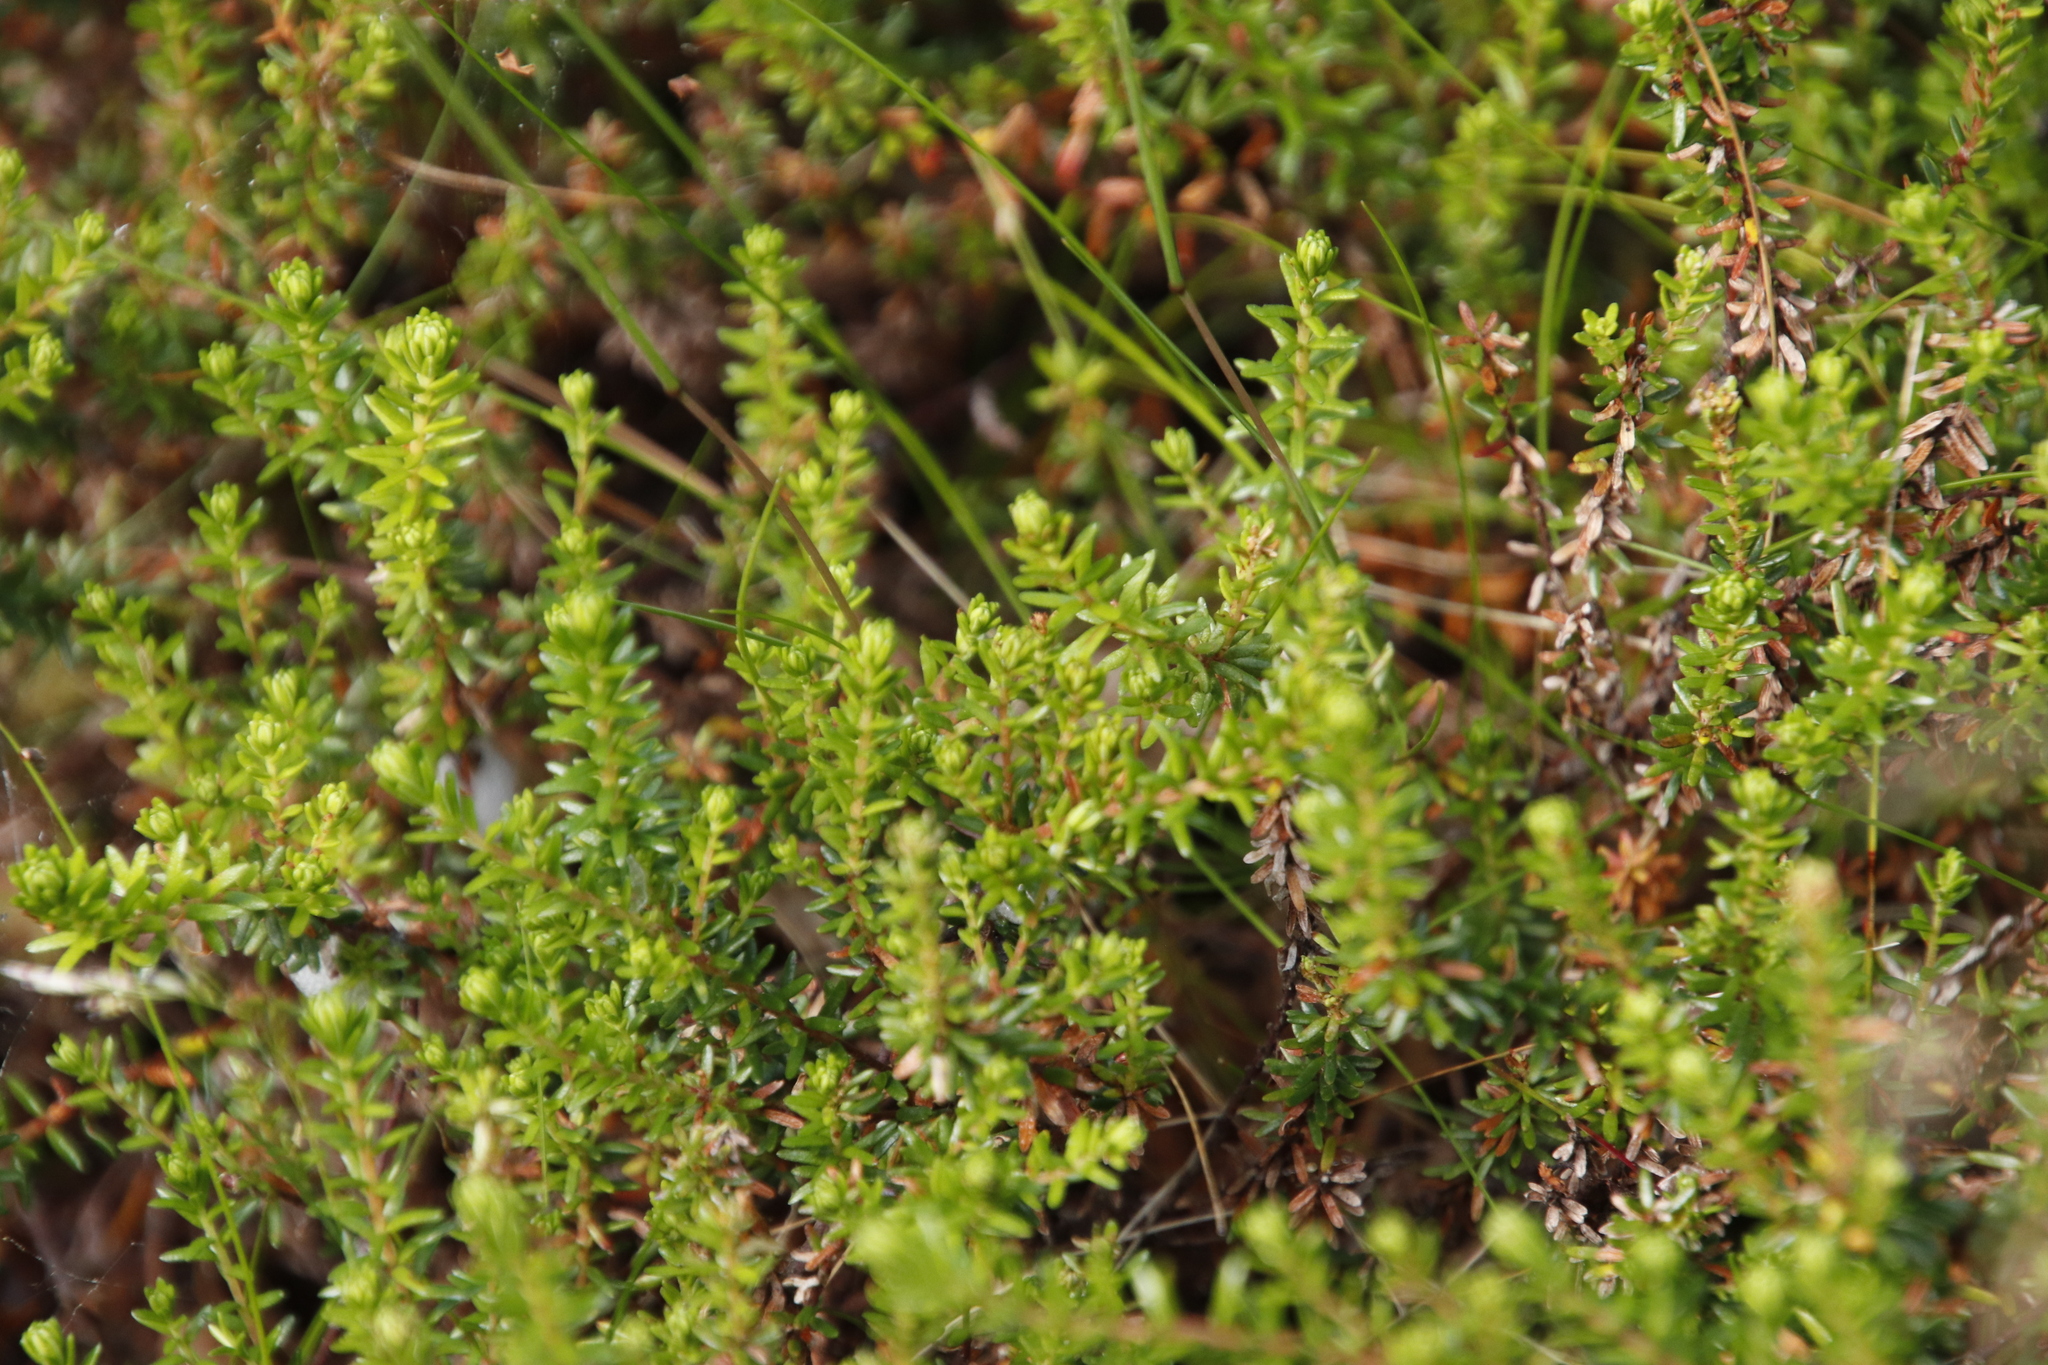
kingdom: Plantae
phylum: Tracheophyta
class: Magnoliopsida
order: Ericales
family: Ericaceae
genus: Calluna
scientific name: Calluna vulgaris
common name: Heather
